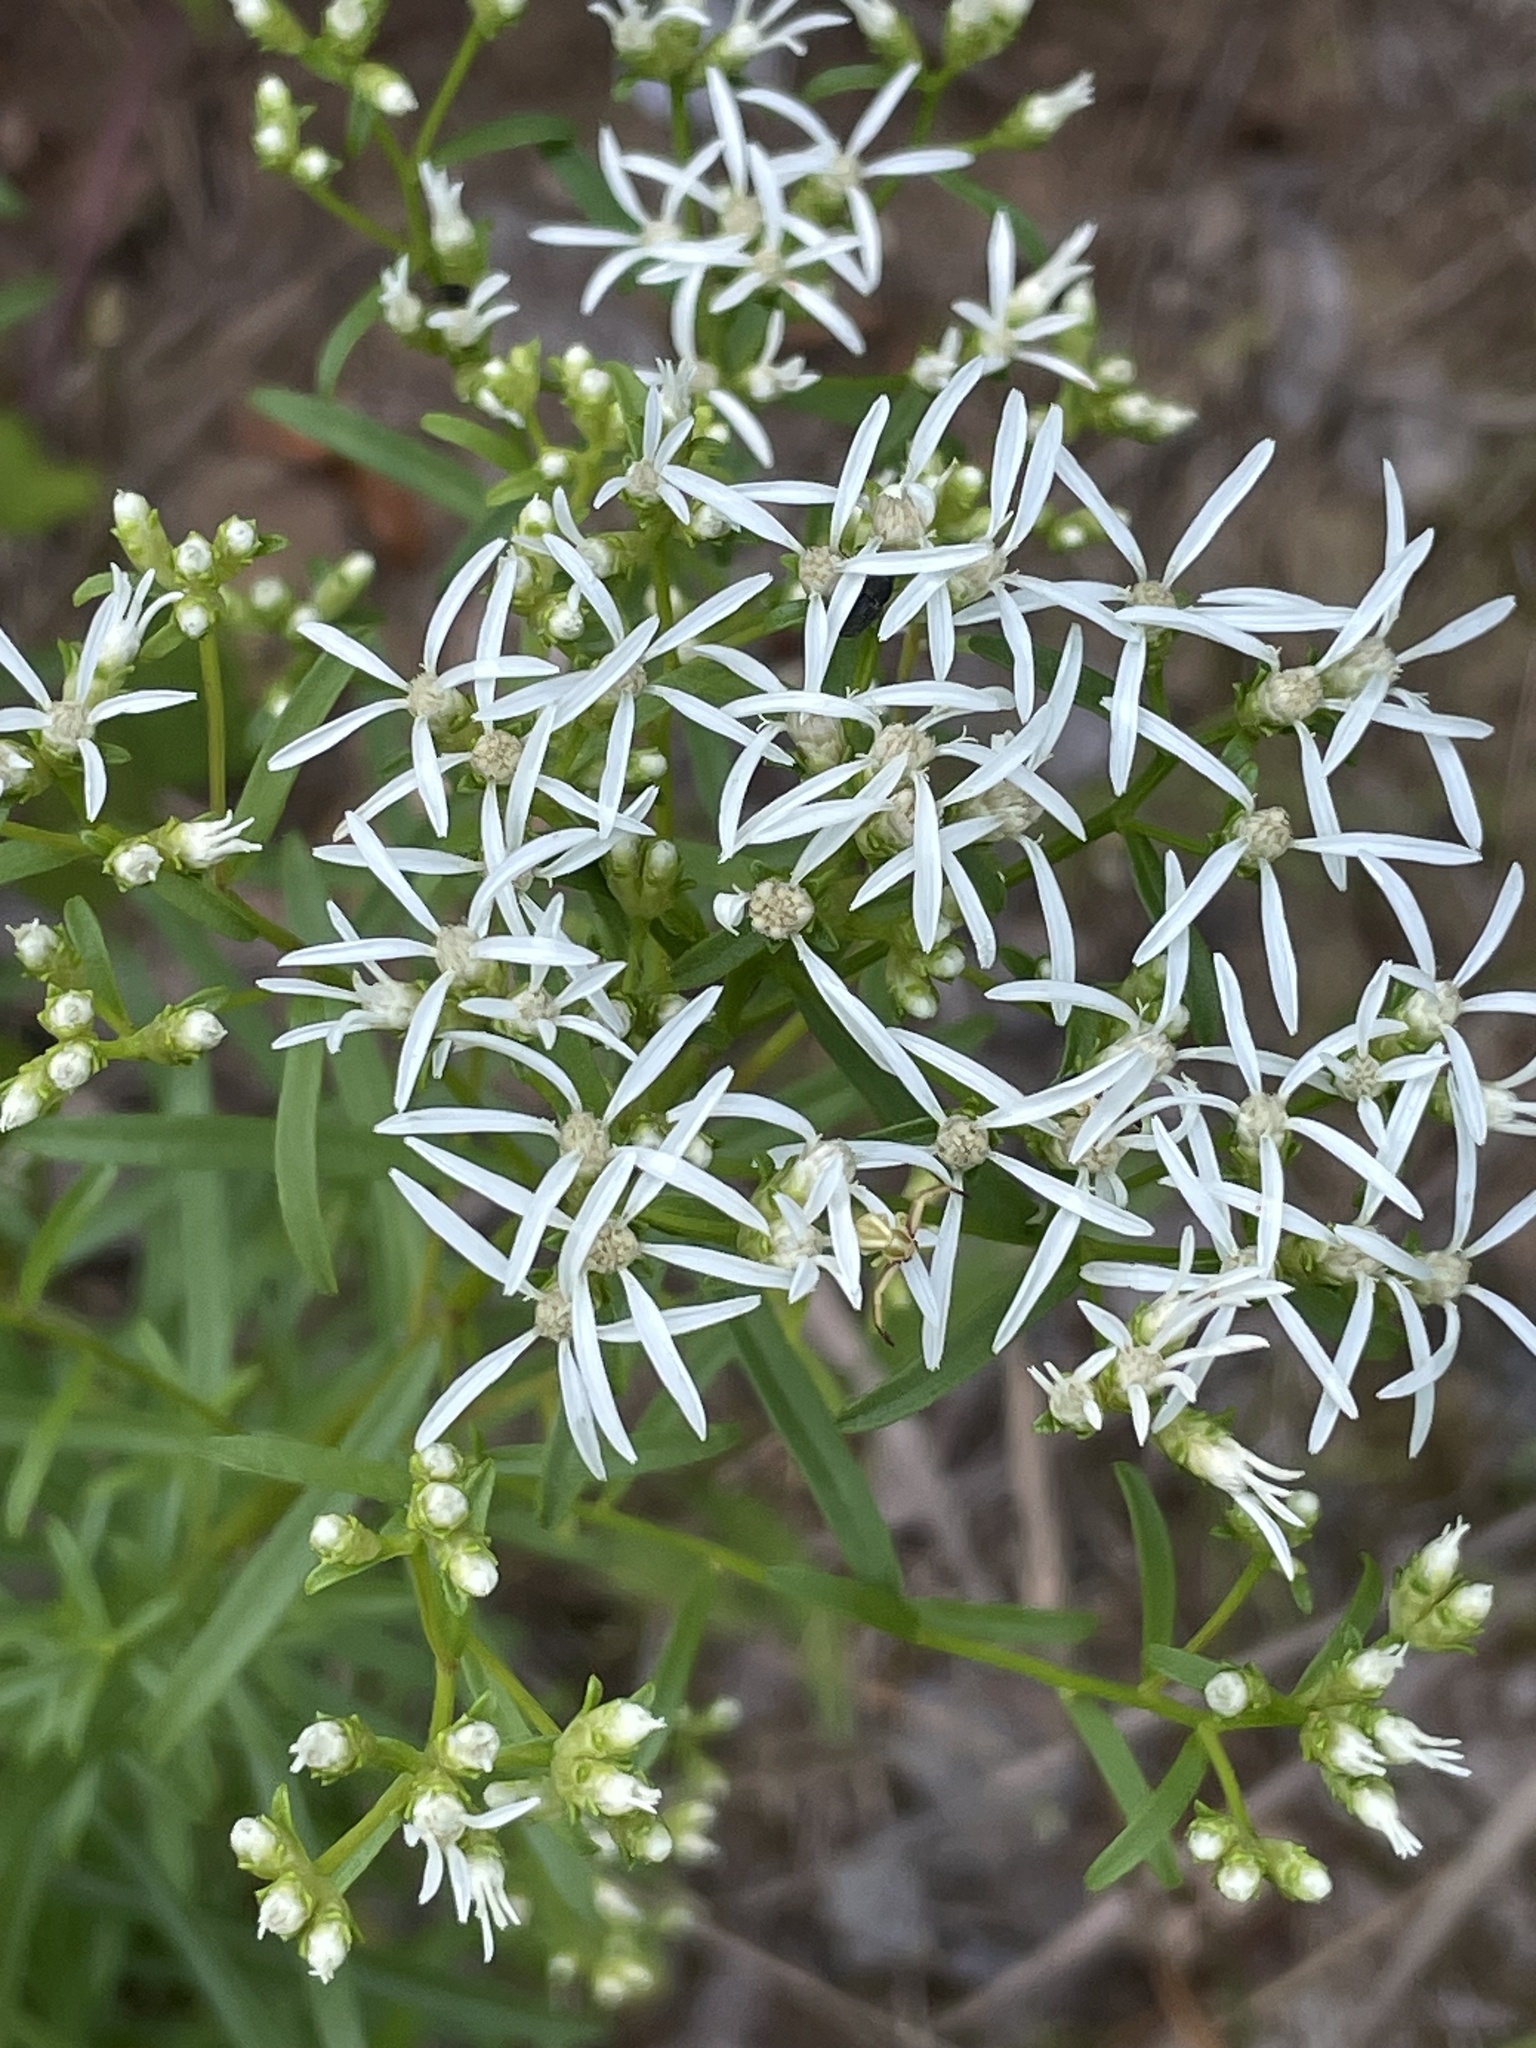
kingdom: Plantae
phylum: Tracheophyta
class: Magnoliopsida
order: Asterales
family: Asteraceae
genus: Sericocarpus
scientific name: Sericocarpus linifolius
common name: Narrow-leaf aster
